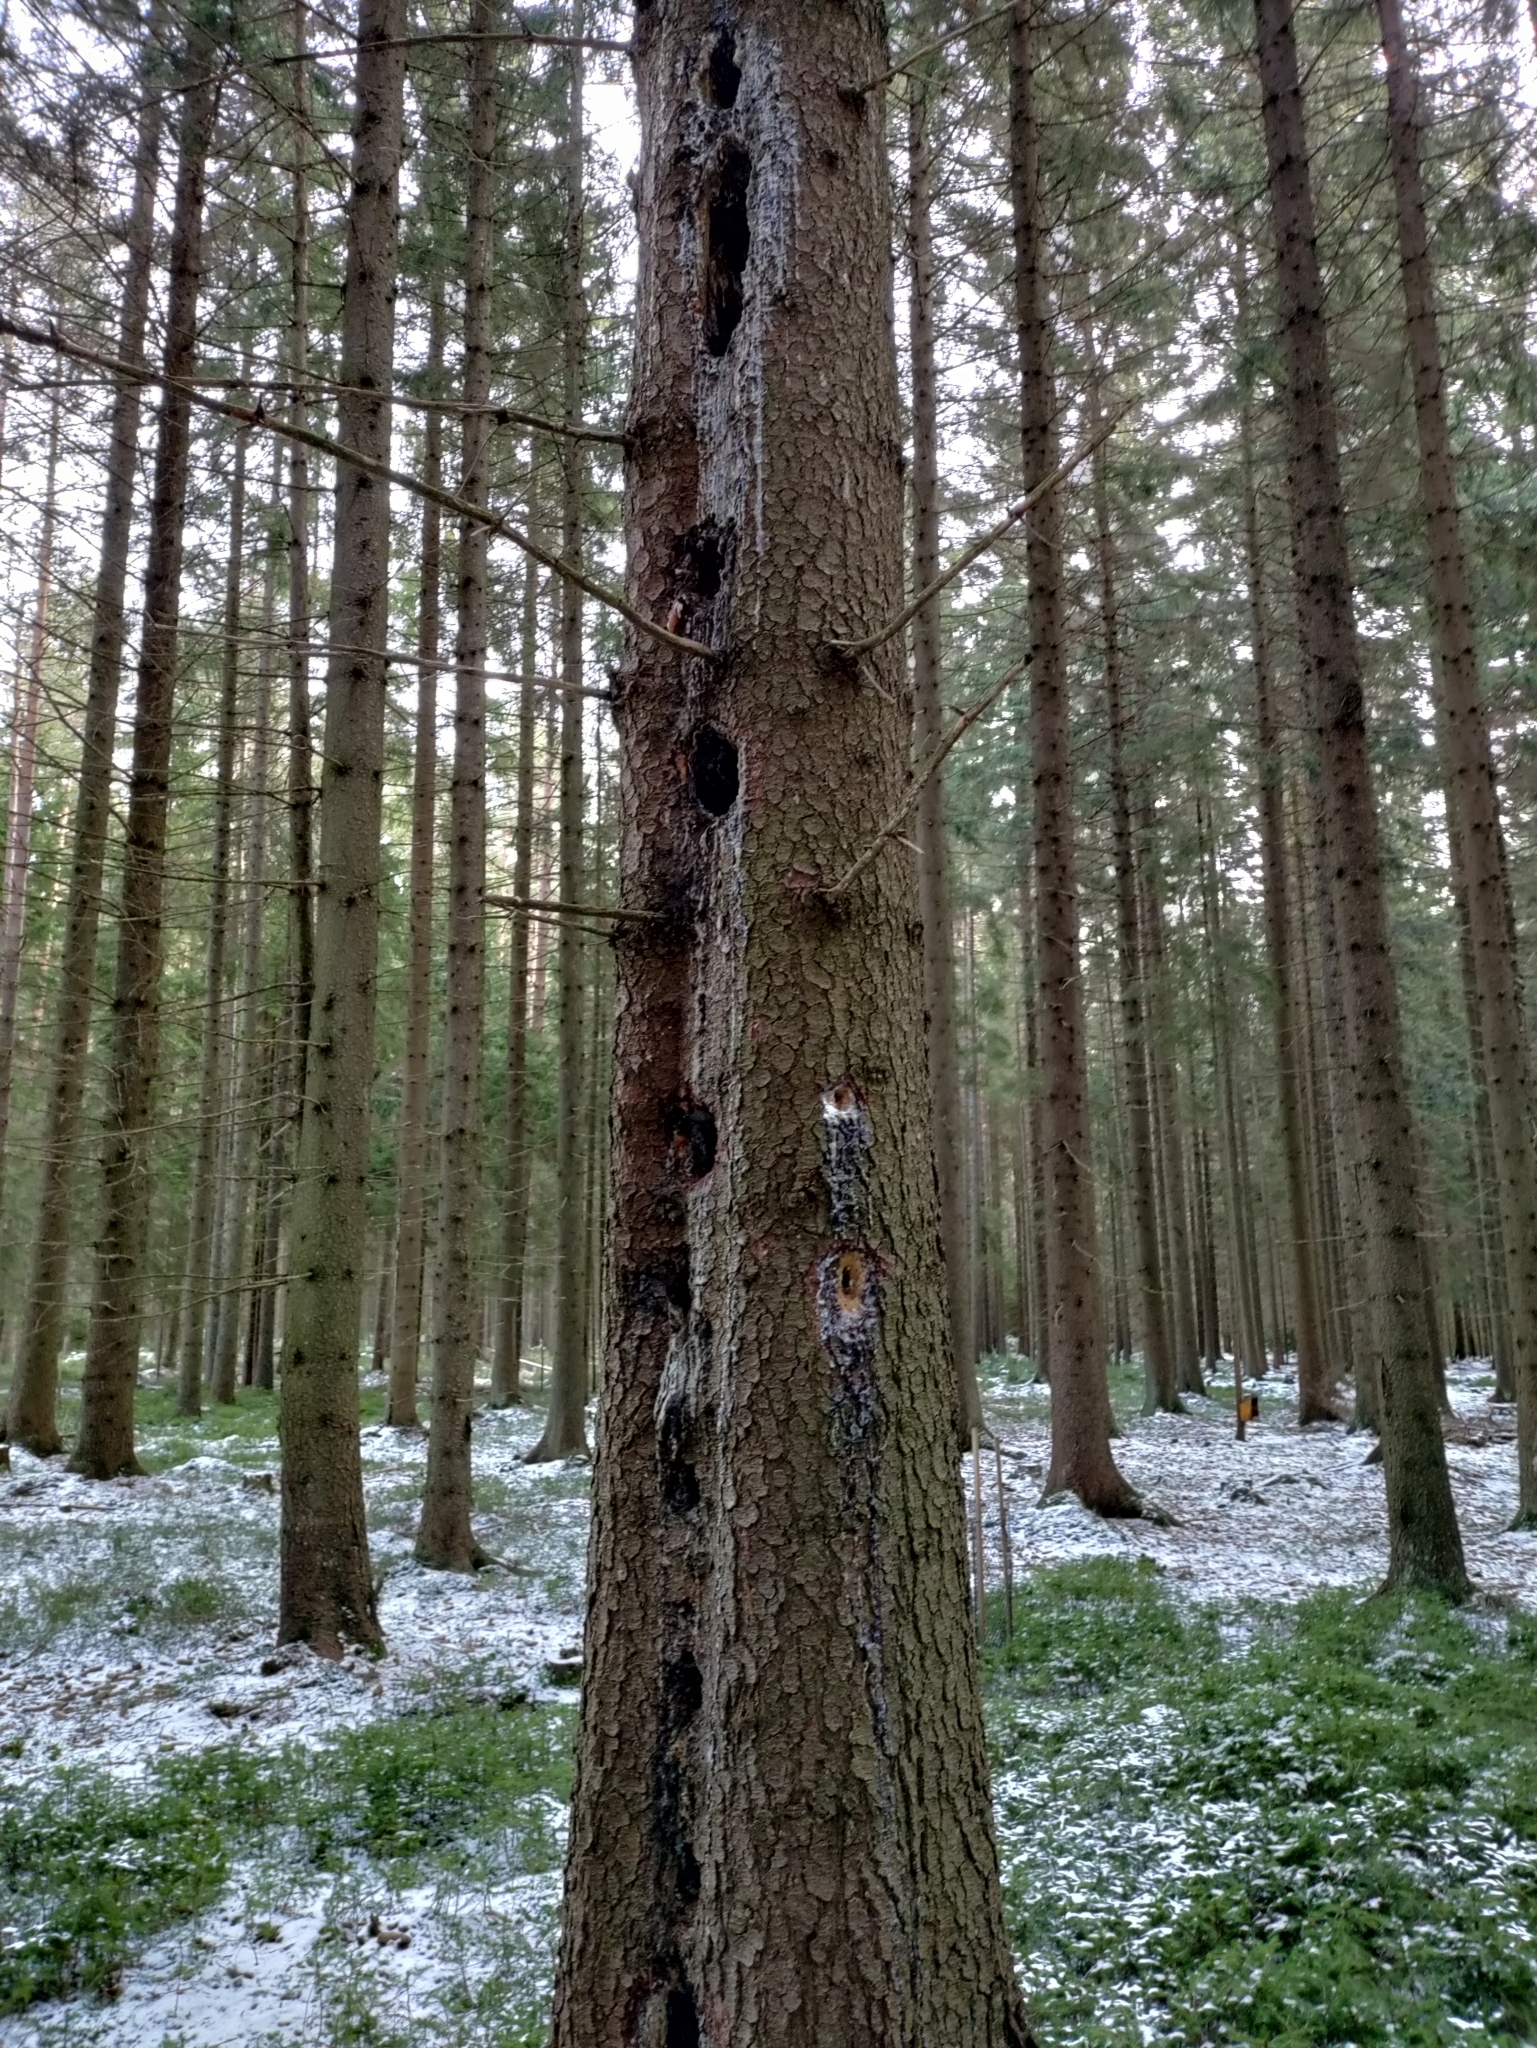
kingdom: Animalia
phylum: Chordata
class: Aves
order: Piciformes
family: Picidae
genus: Dryocopus
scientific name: Dryocopus martius
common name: Black woodpecker
